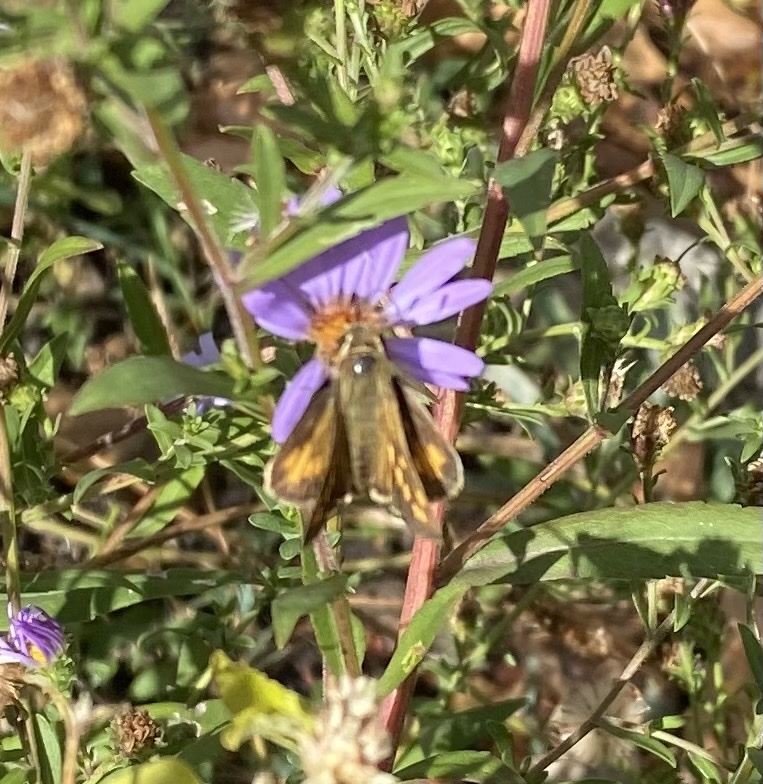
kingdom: Animalia
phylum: Arthropoda
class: Insecta
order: Lepidoptera
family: Hesperiidae
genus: Lon
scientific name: Lon melane
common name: Umber skipper
